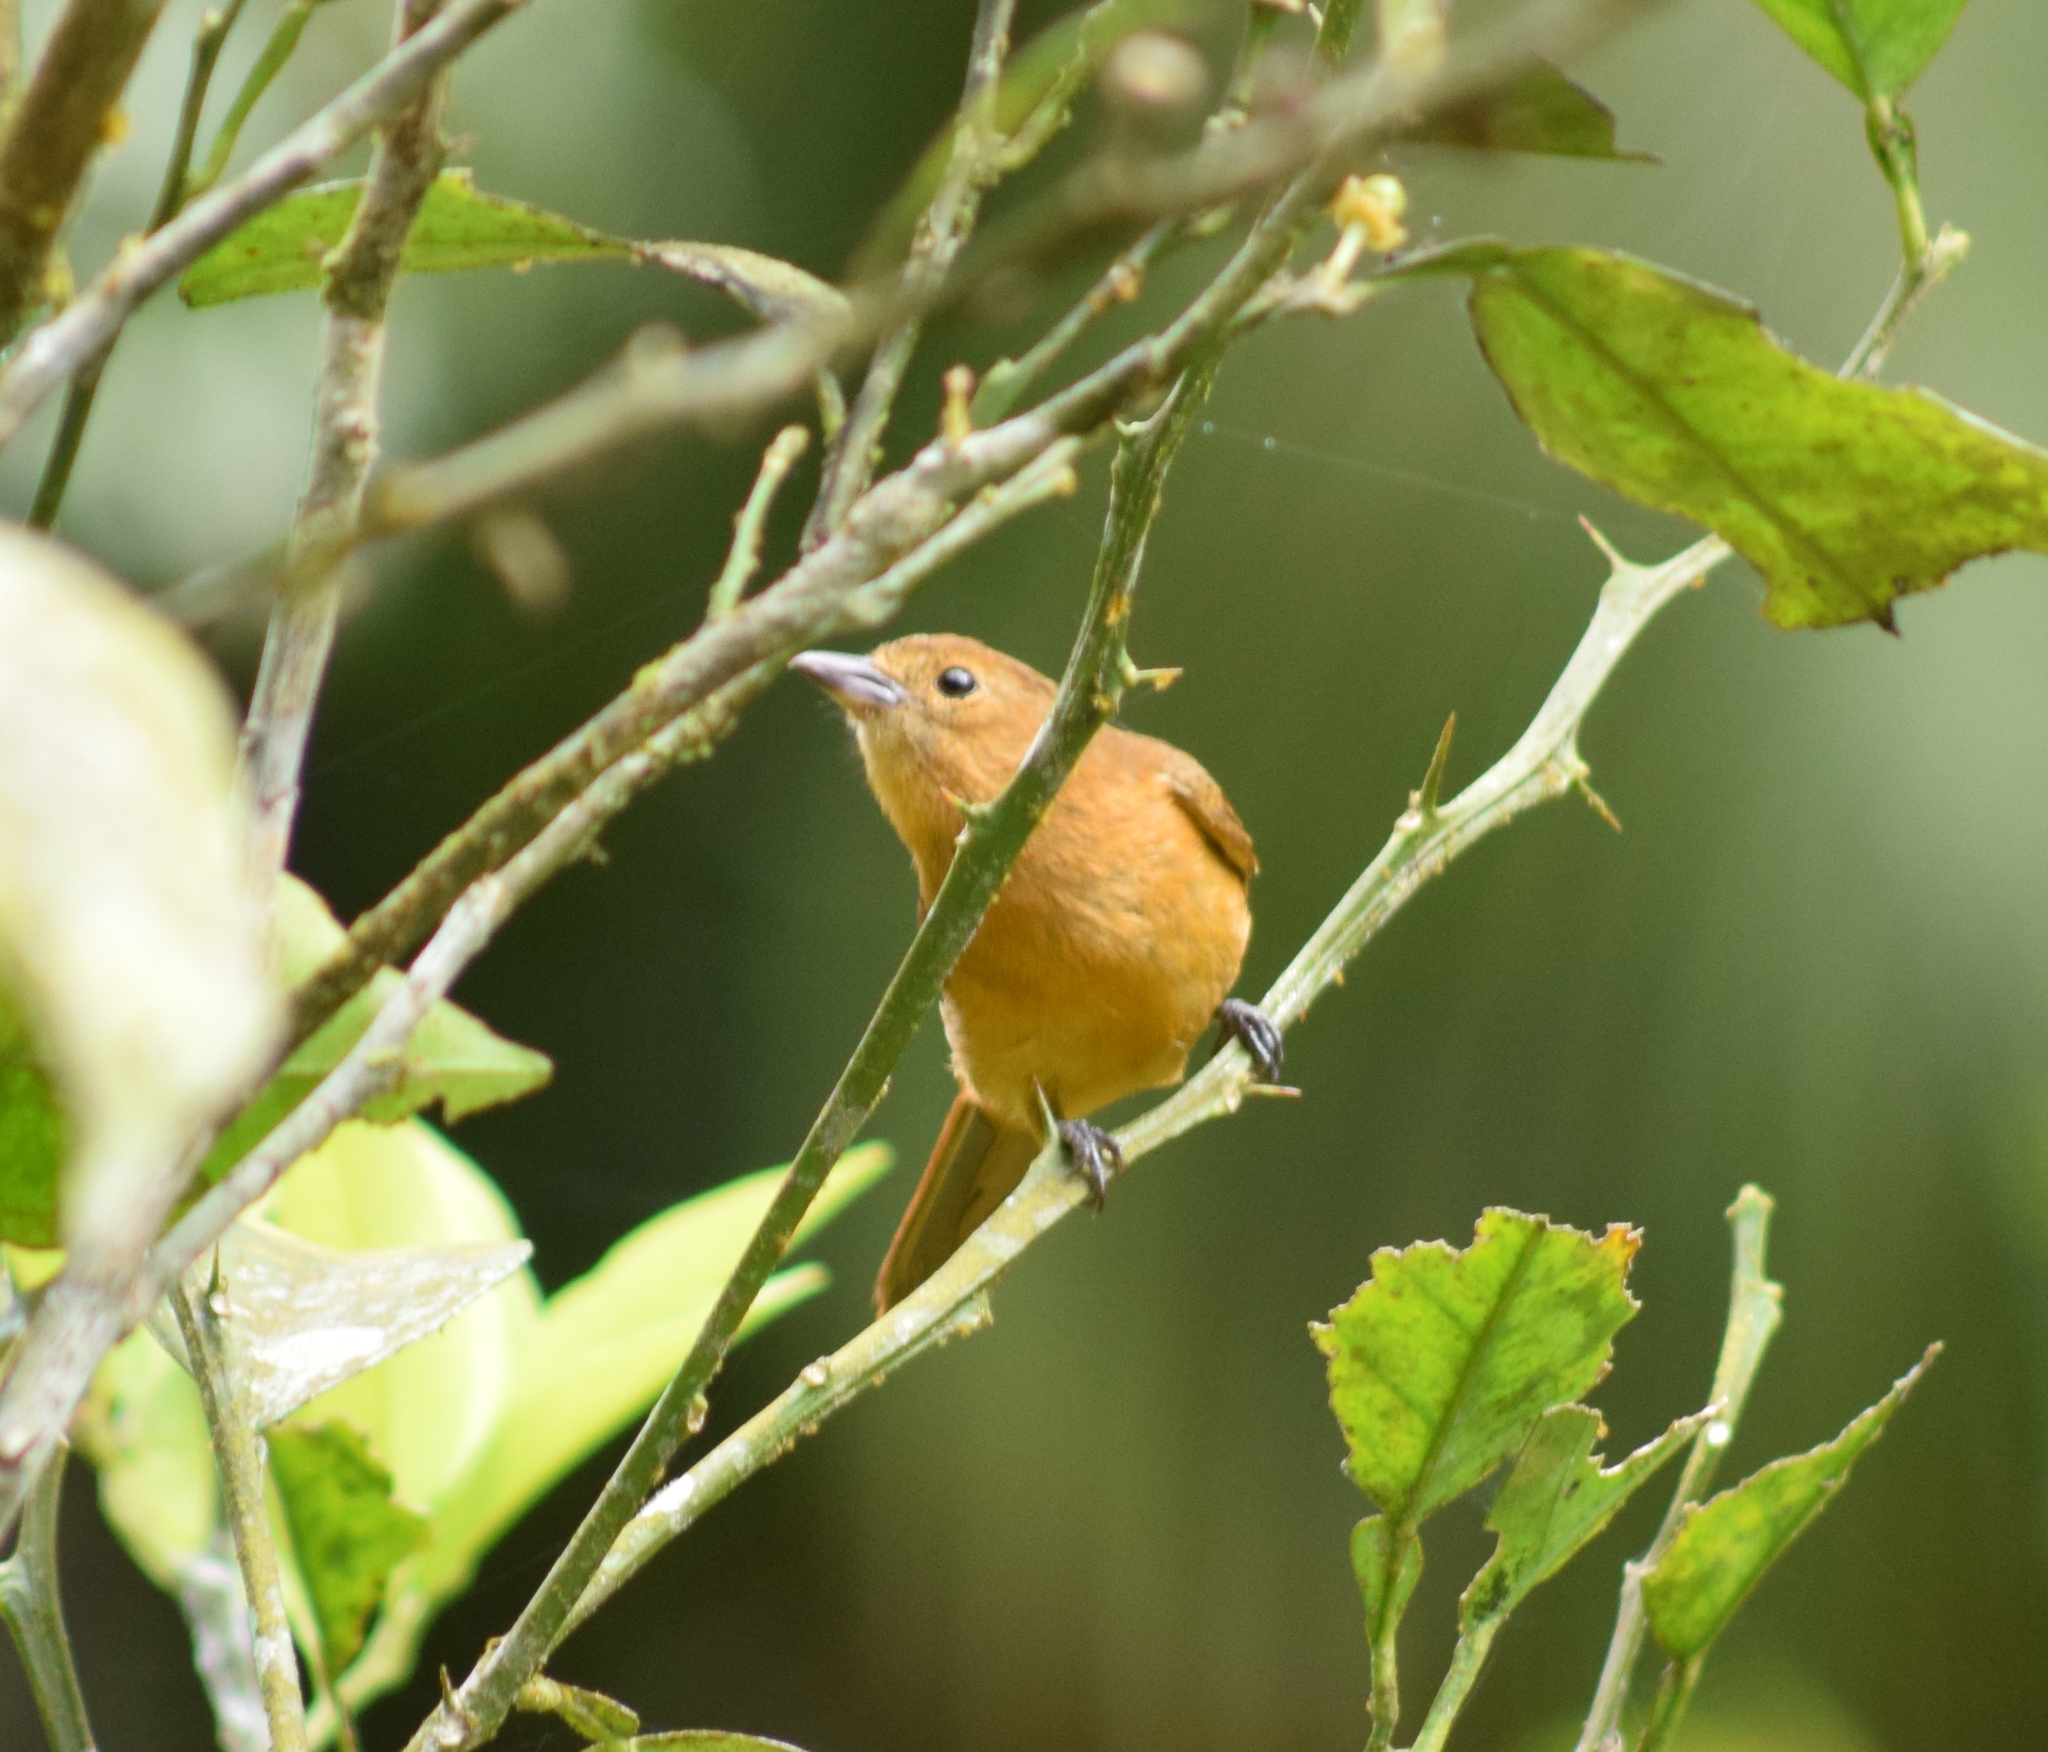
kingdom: Animalia
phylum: Chordata
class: Aves
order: Passeriformes
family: Thraupidae
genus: Loriotus
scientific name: Loriotus cristatus
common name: Flame-crested tanager
